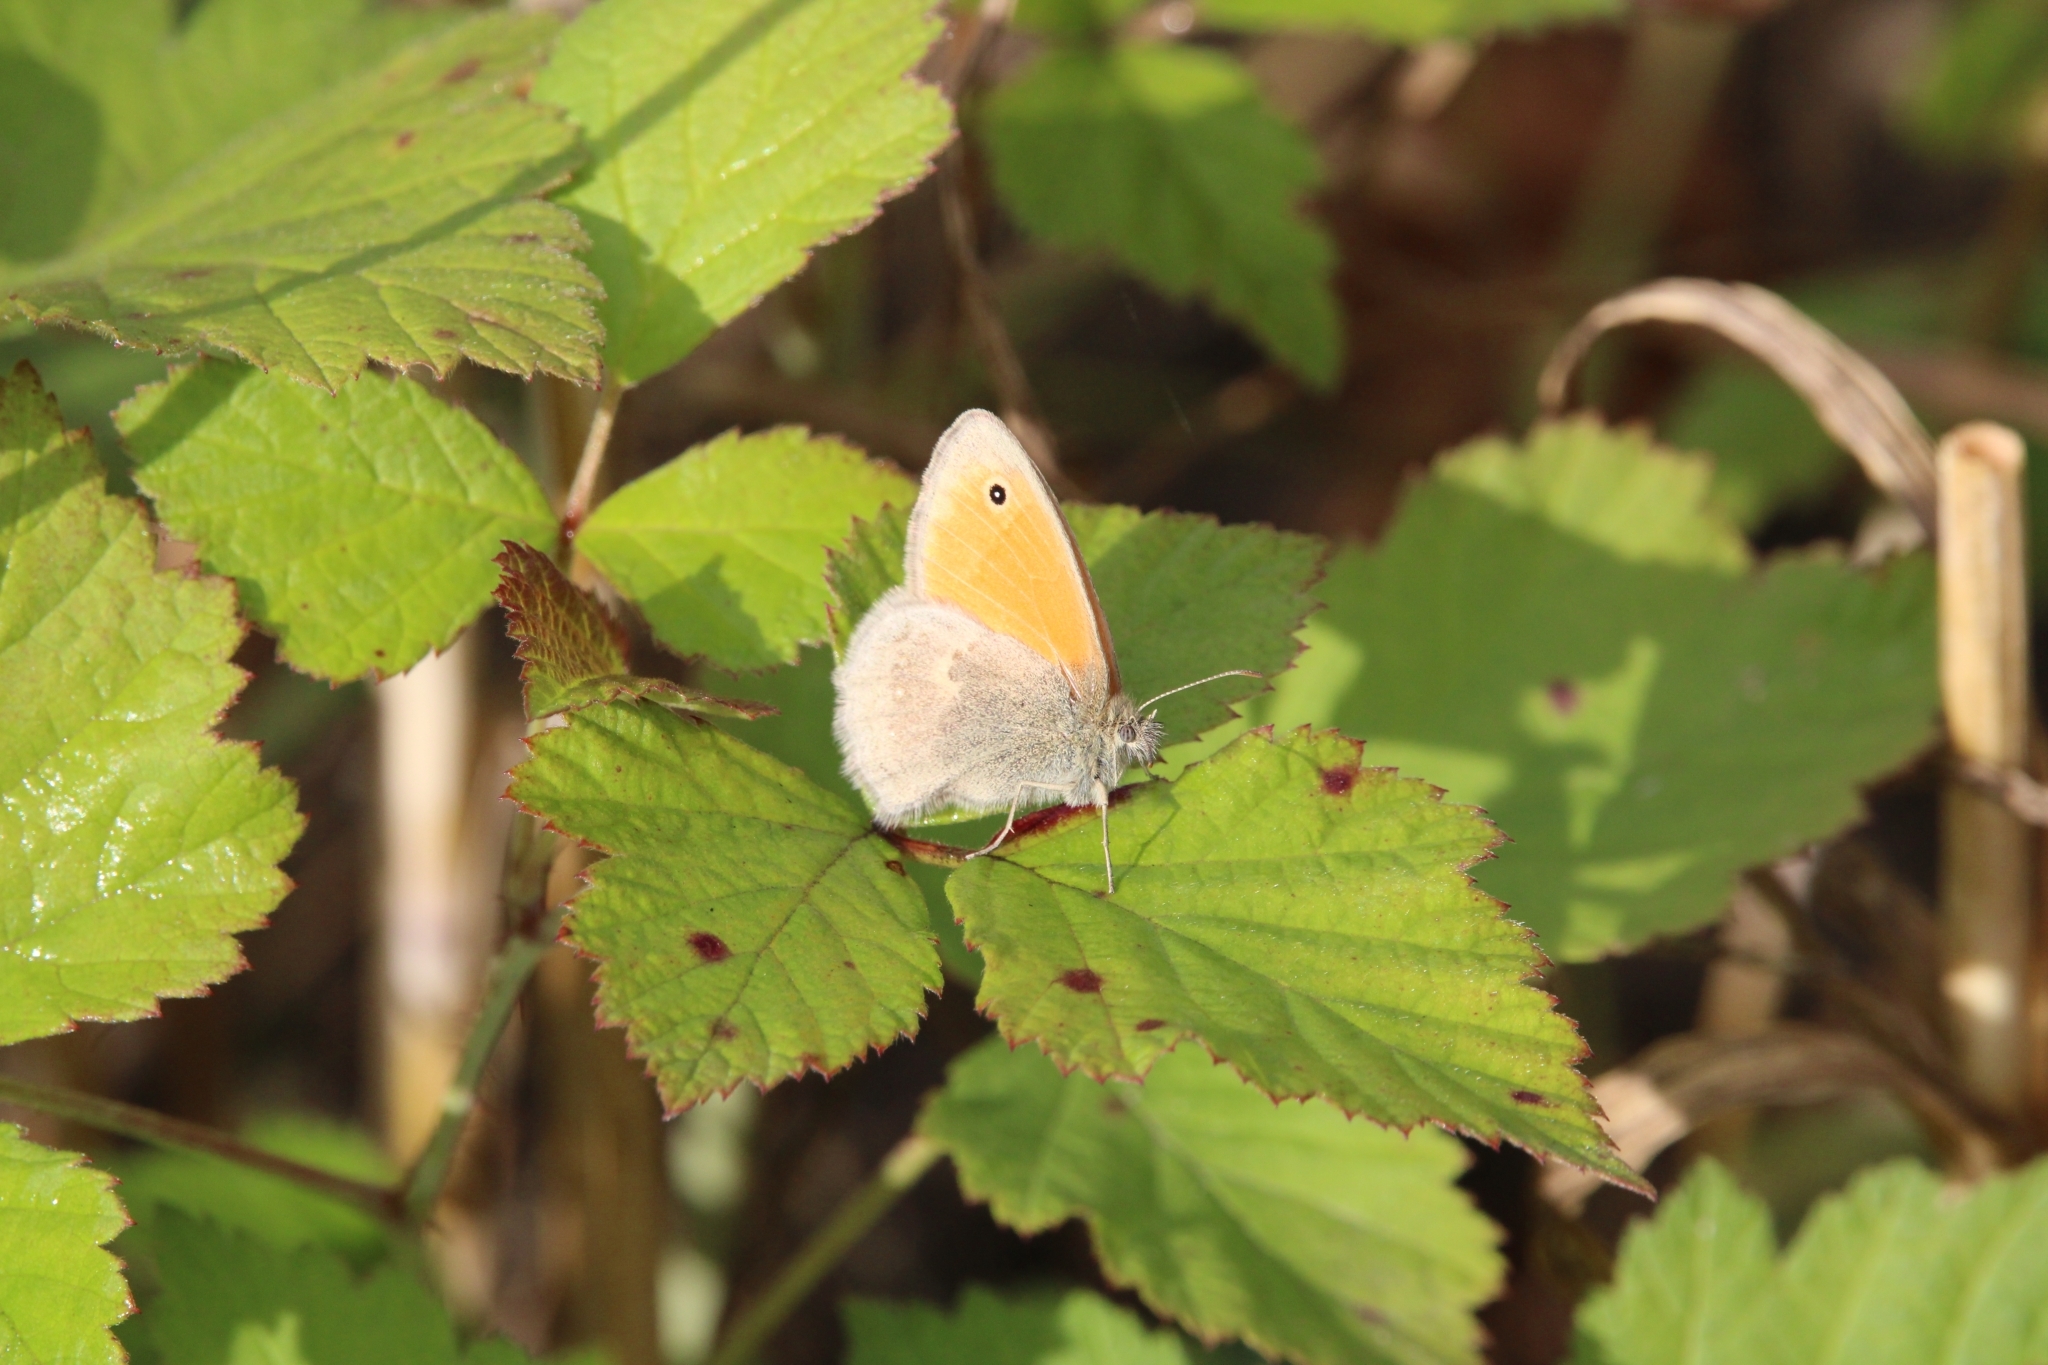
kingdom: Animalia
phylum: Arthropoda
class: Insecta
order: Lepidoptera
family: Nymphalidae
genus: Coenonympha
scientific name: Coenonympha pamphilus
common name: Small heath
